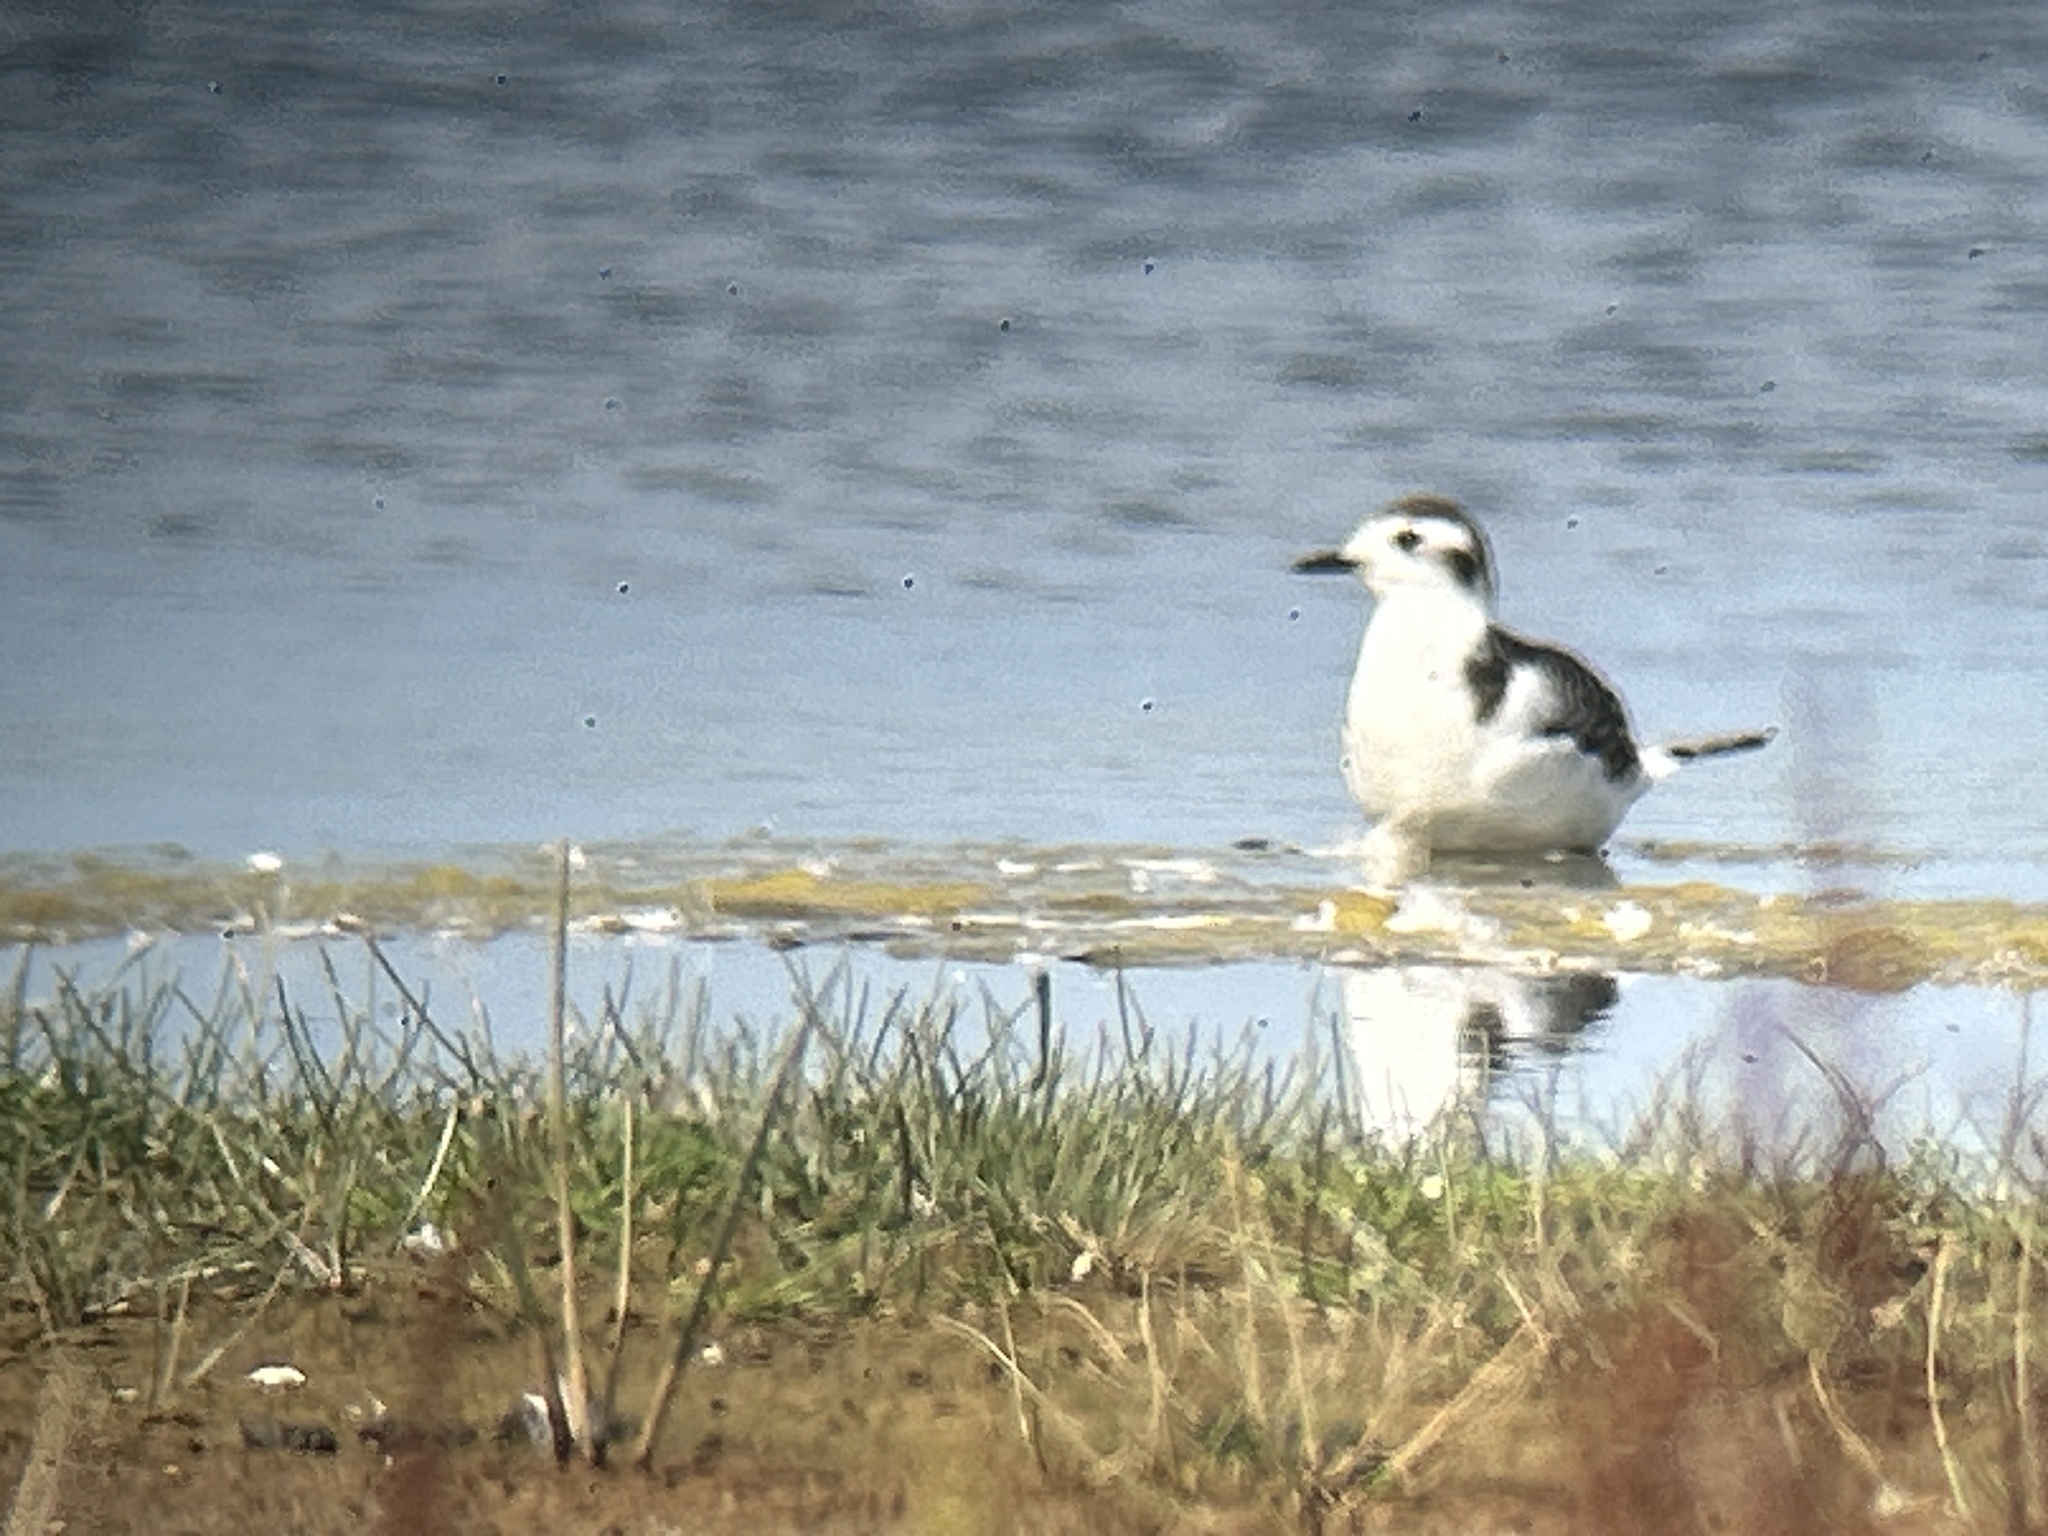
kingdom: Animalia
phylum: Chordata
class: Aves
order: Charadriiformes
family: Laridae
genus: Hydrocoloeus
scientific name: Hydrocoloeus minutus
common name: Little gull
